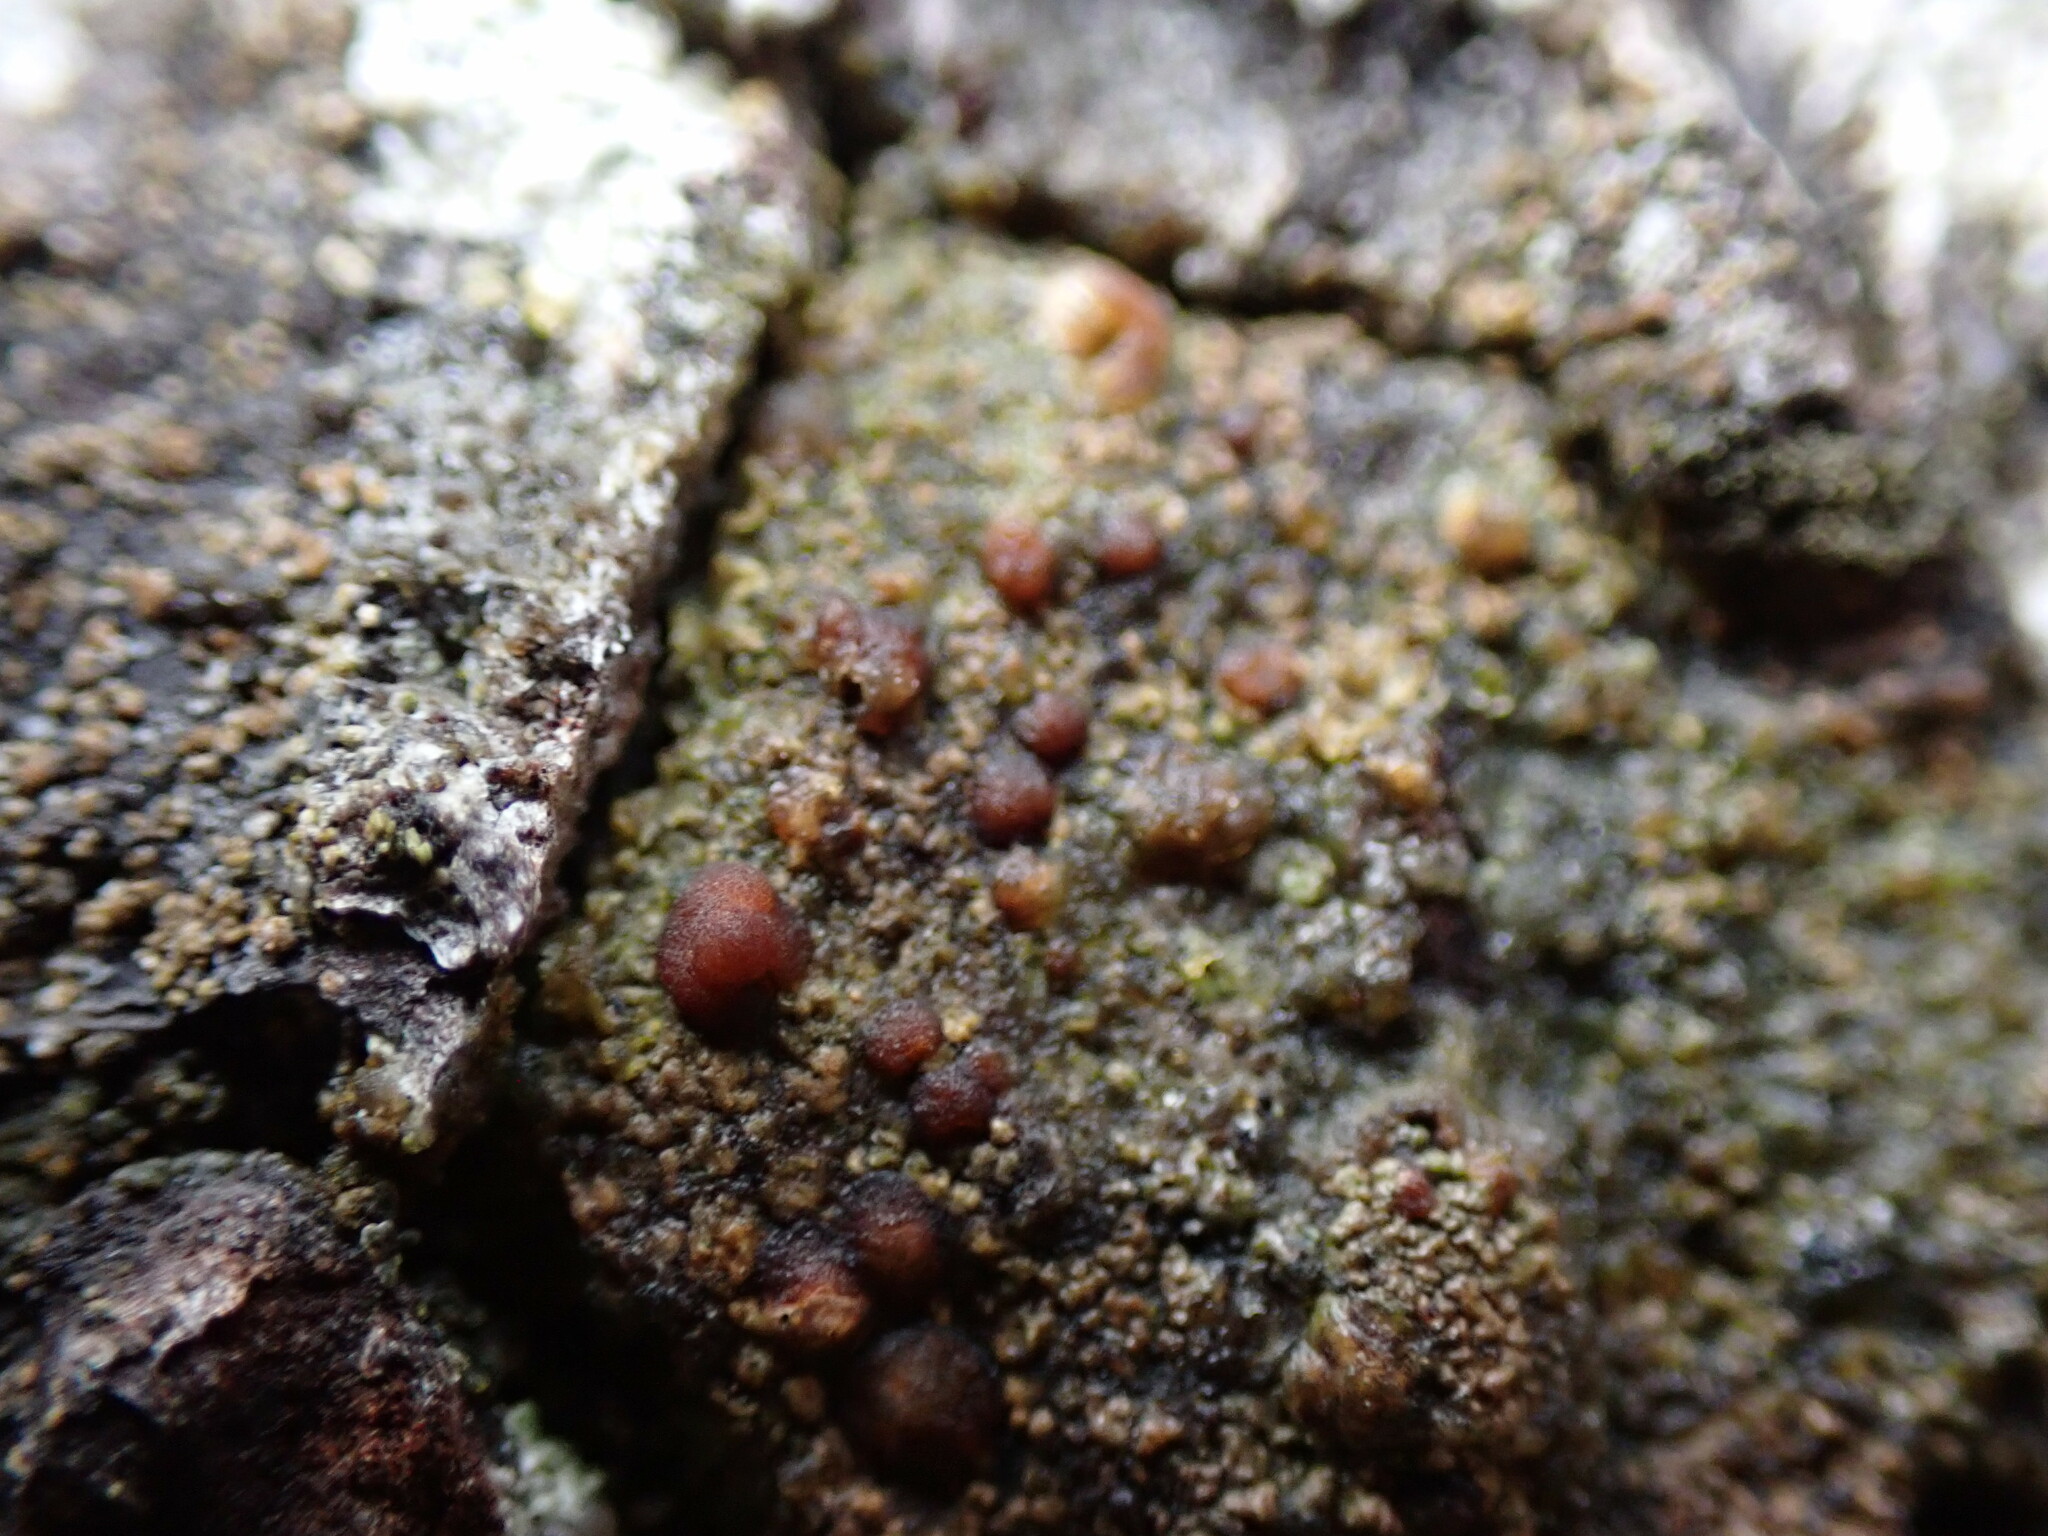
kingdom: Fungi
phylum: Ascomycota
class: Lecanoromycetes
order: Lecanorales
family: Lecanoraceae
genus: Japewia
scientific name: Japewia tornoensis
